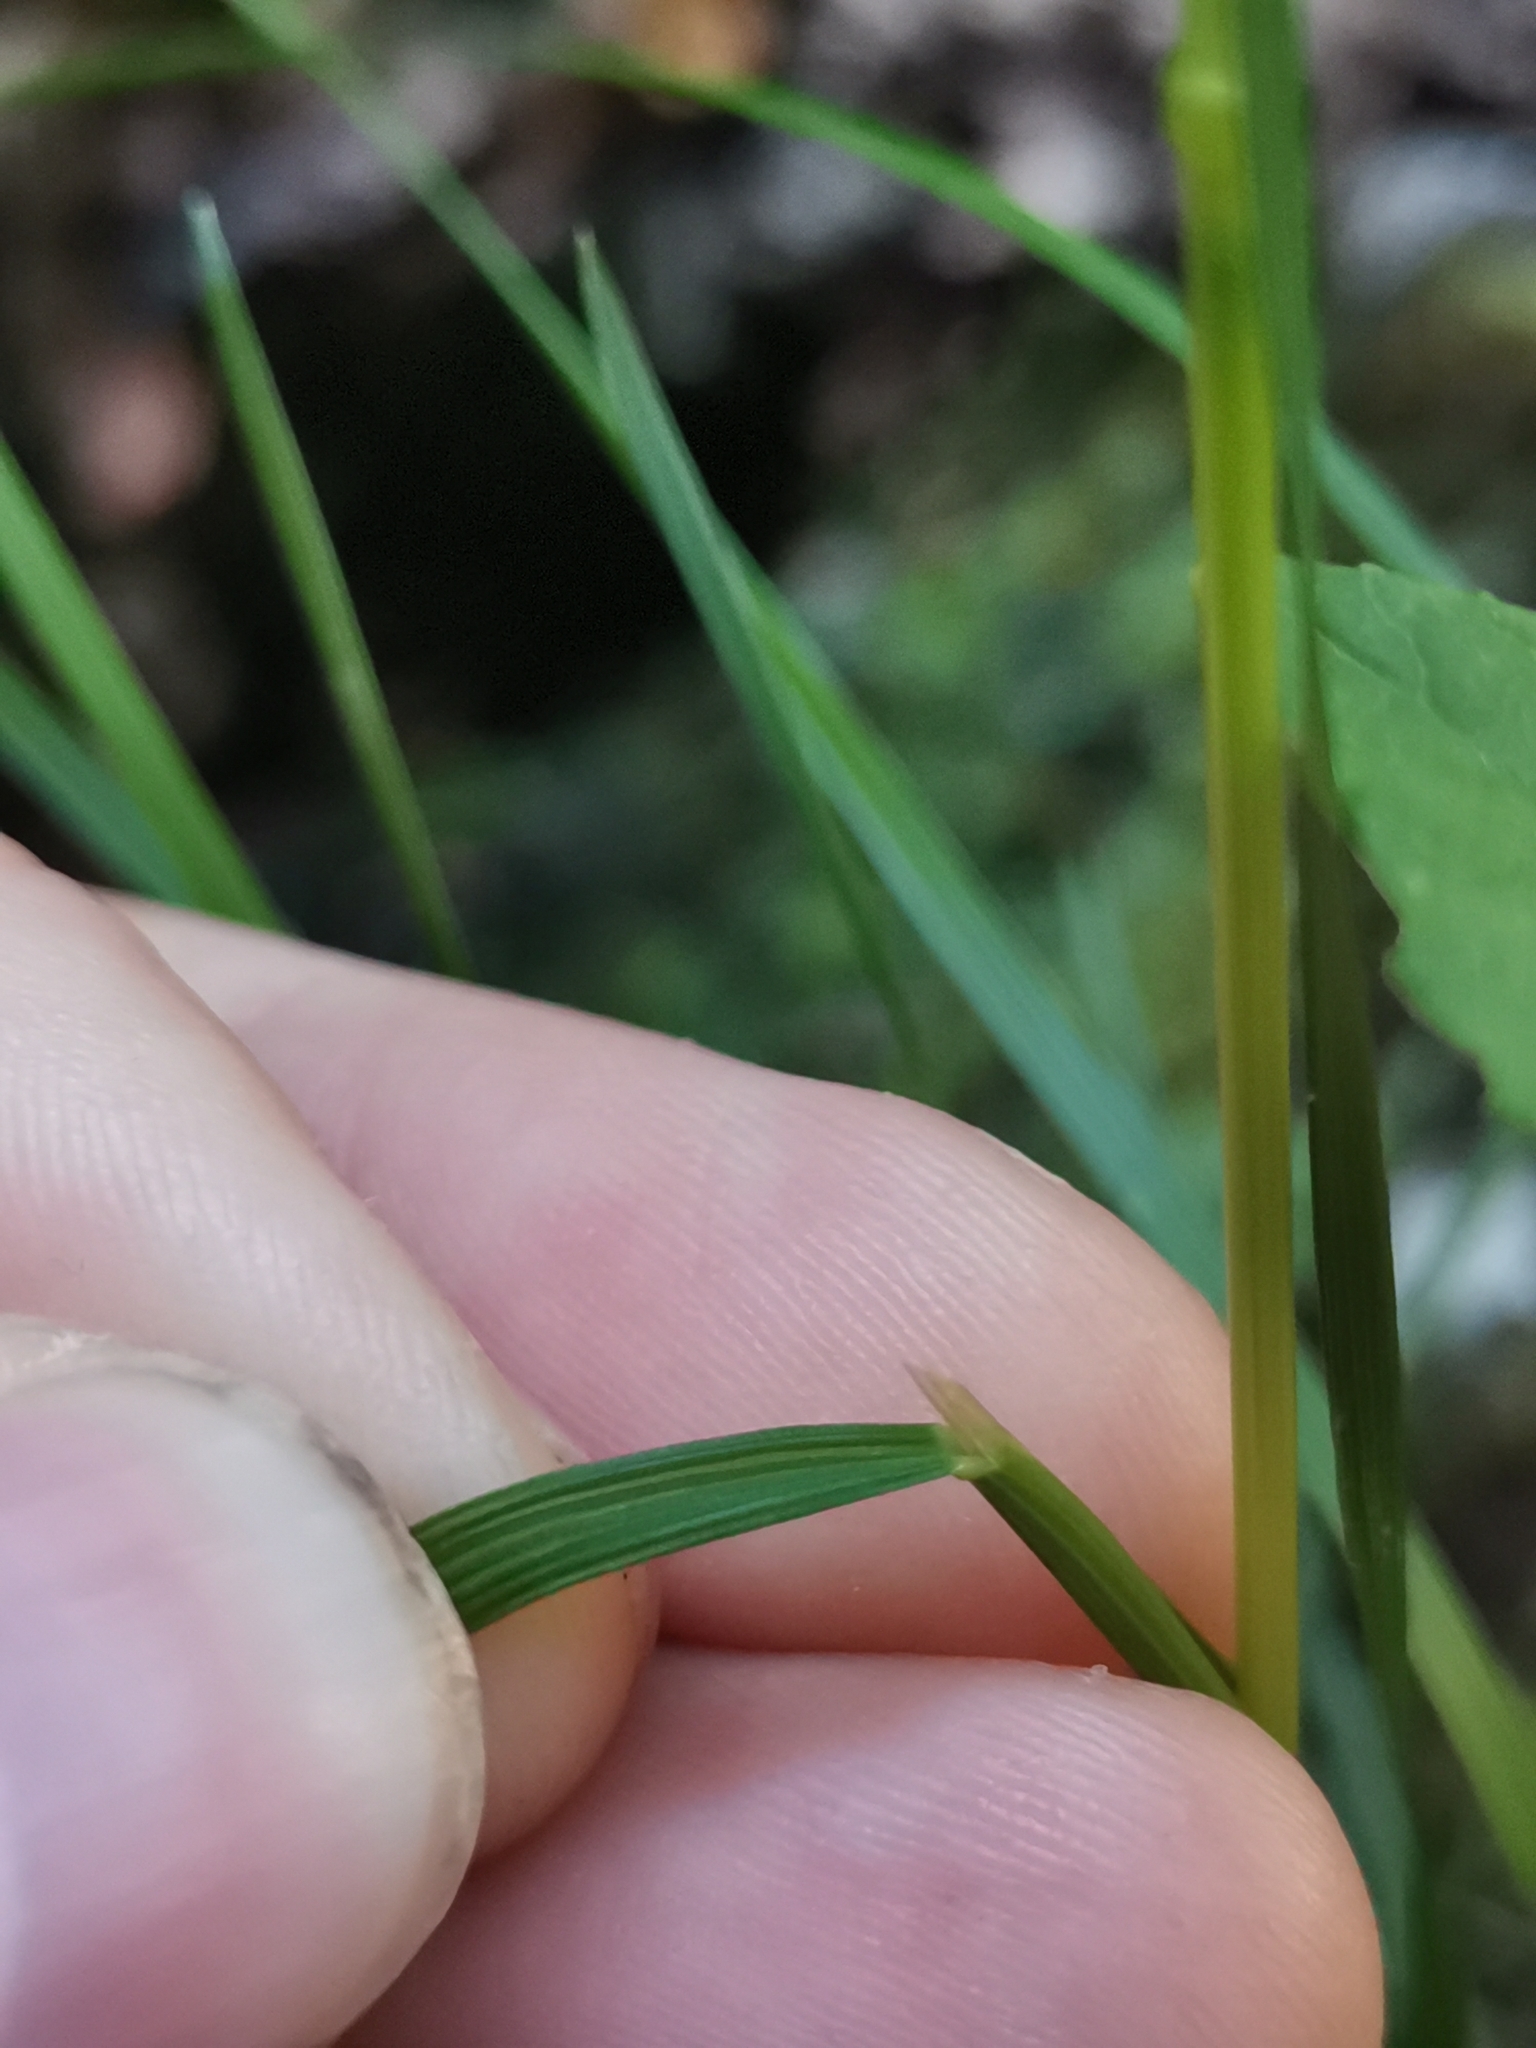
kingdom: Plantae
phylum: Tracheophyta
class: Liliopsida
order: Poales
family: Poaceae
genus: Deschampsia
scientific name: Deschampsia cespitosa
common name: Tufted hair-grass
